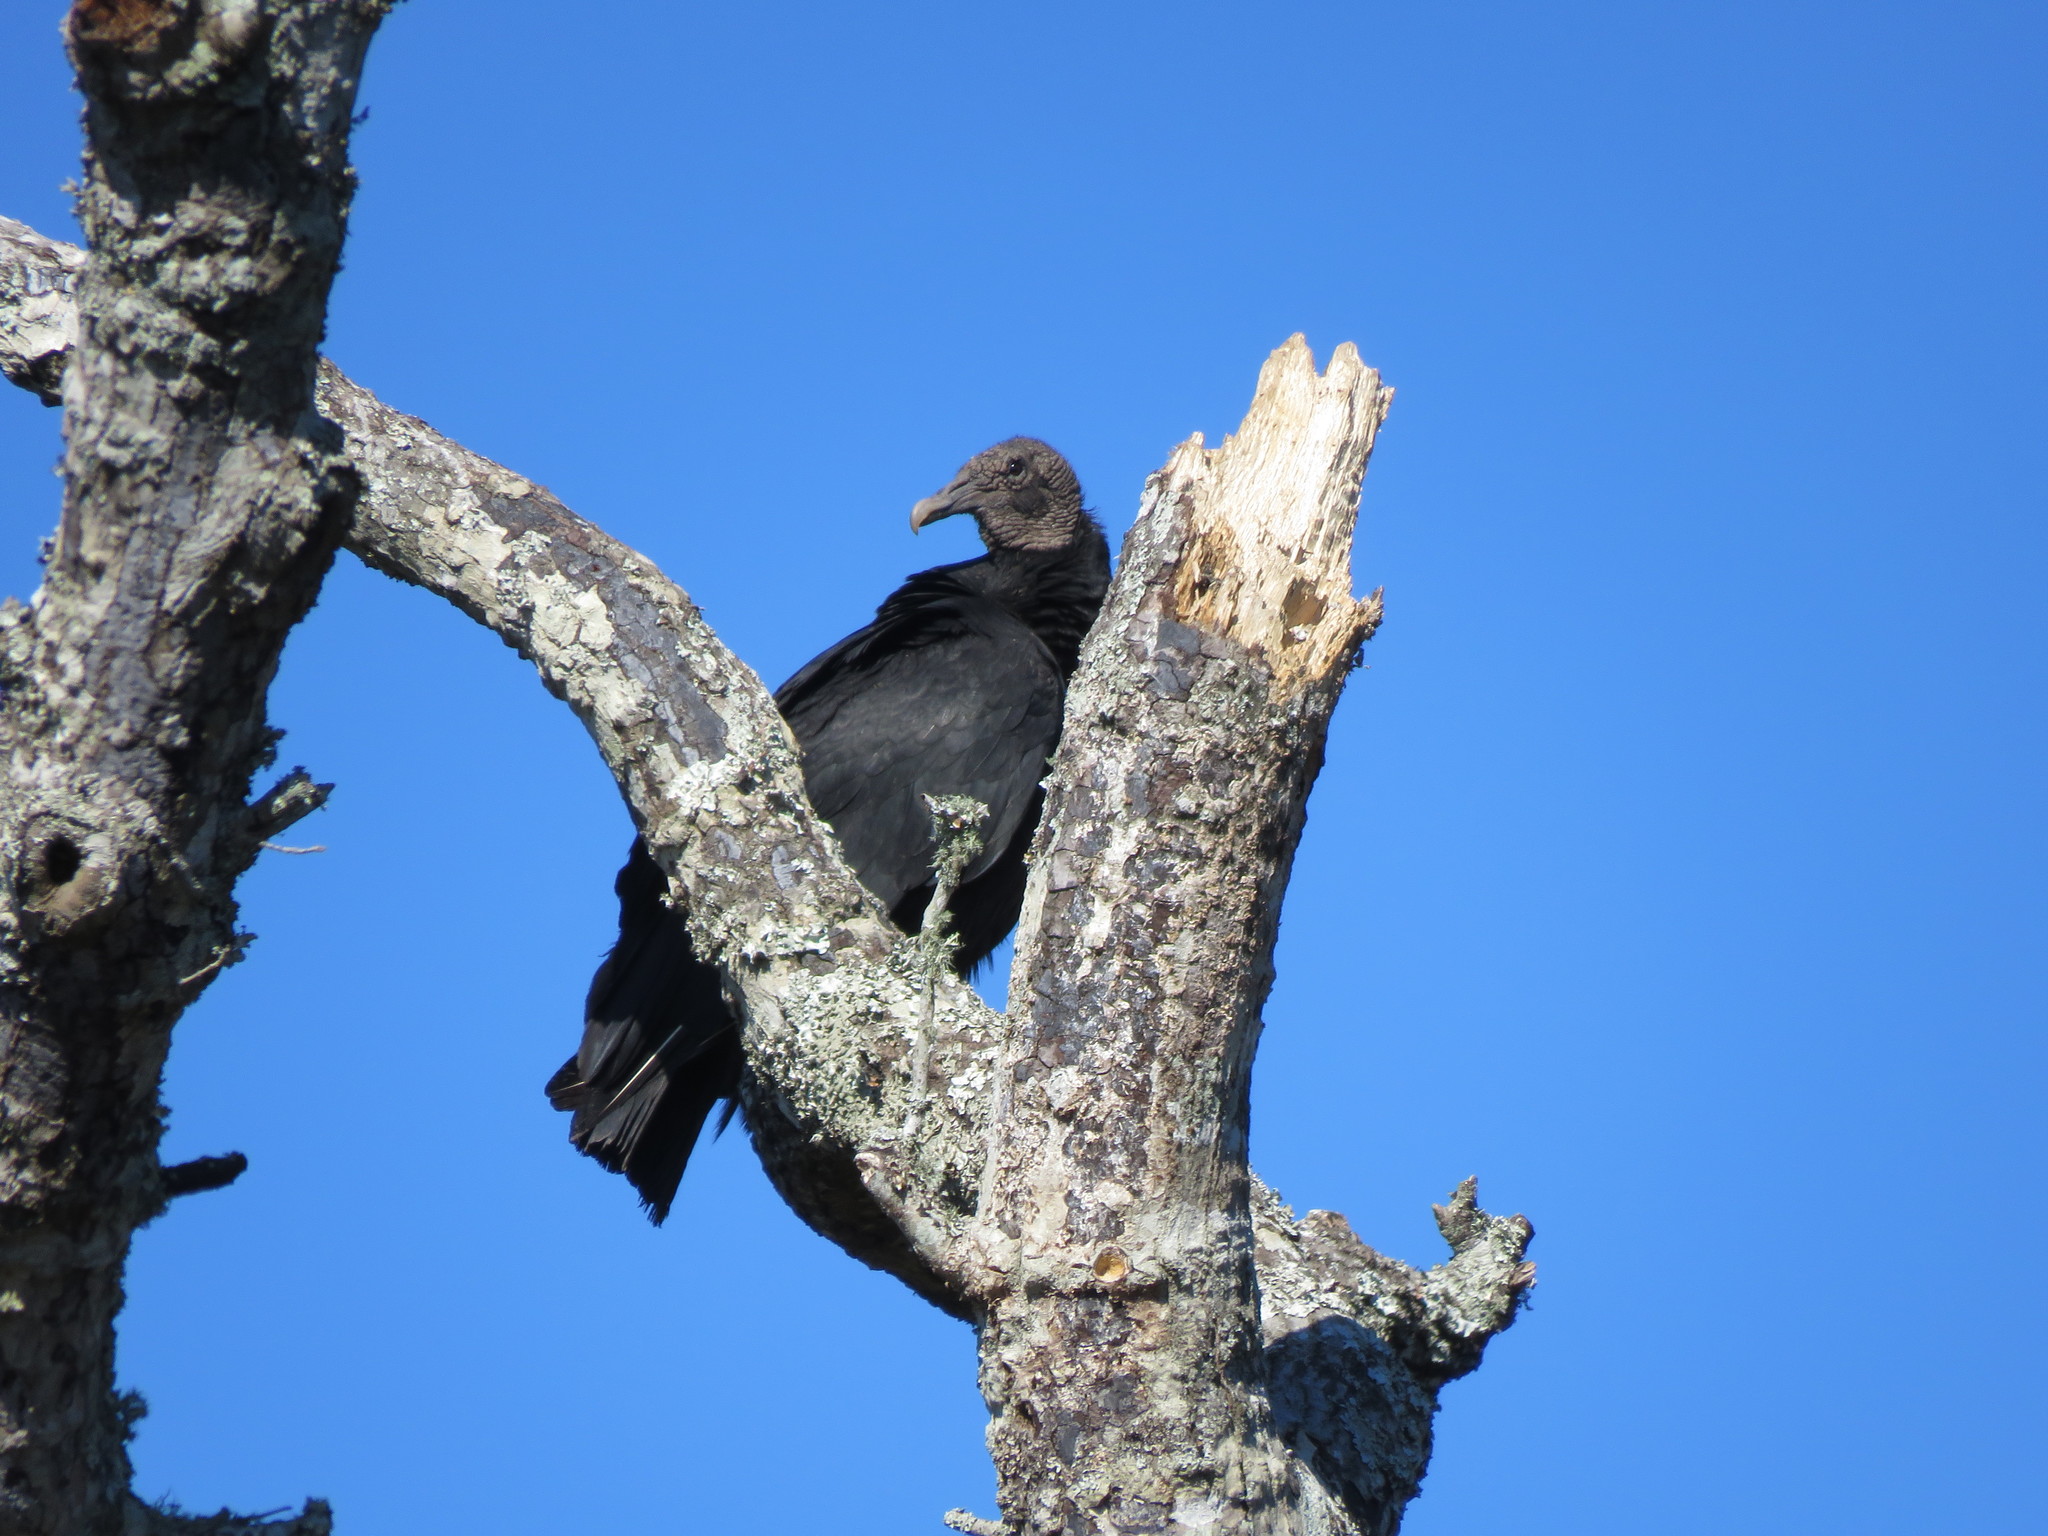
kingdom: Animalia
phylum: Chordata
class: Aves
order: Accipitriformes
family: Cathartidae
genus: Coragyps
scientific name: Coragyps atratus
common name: Black vulture
